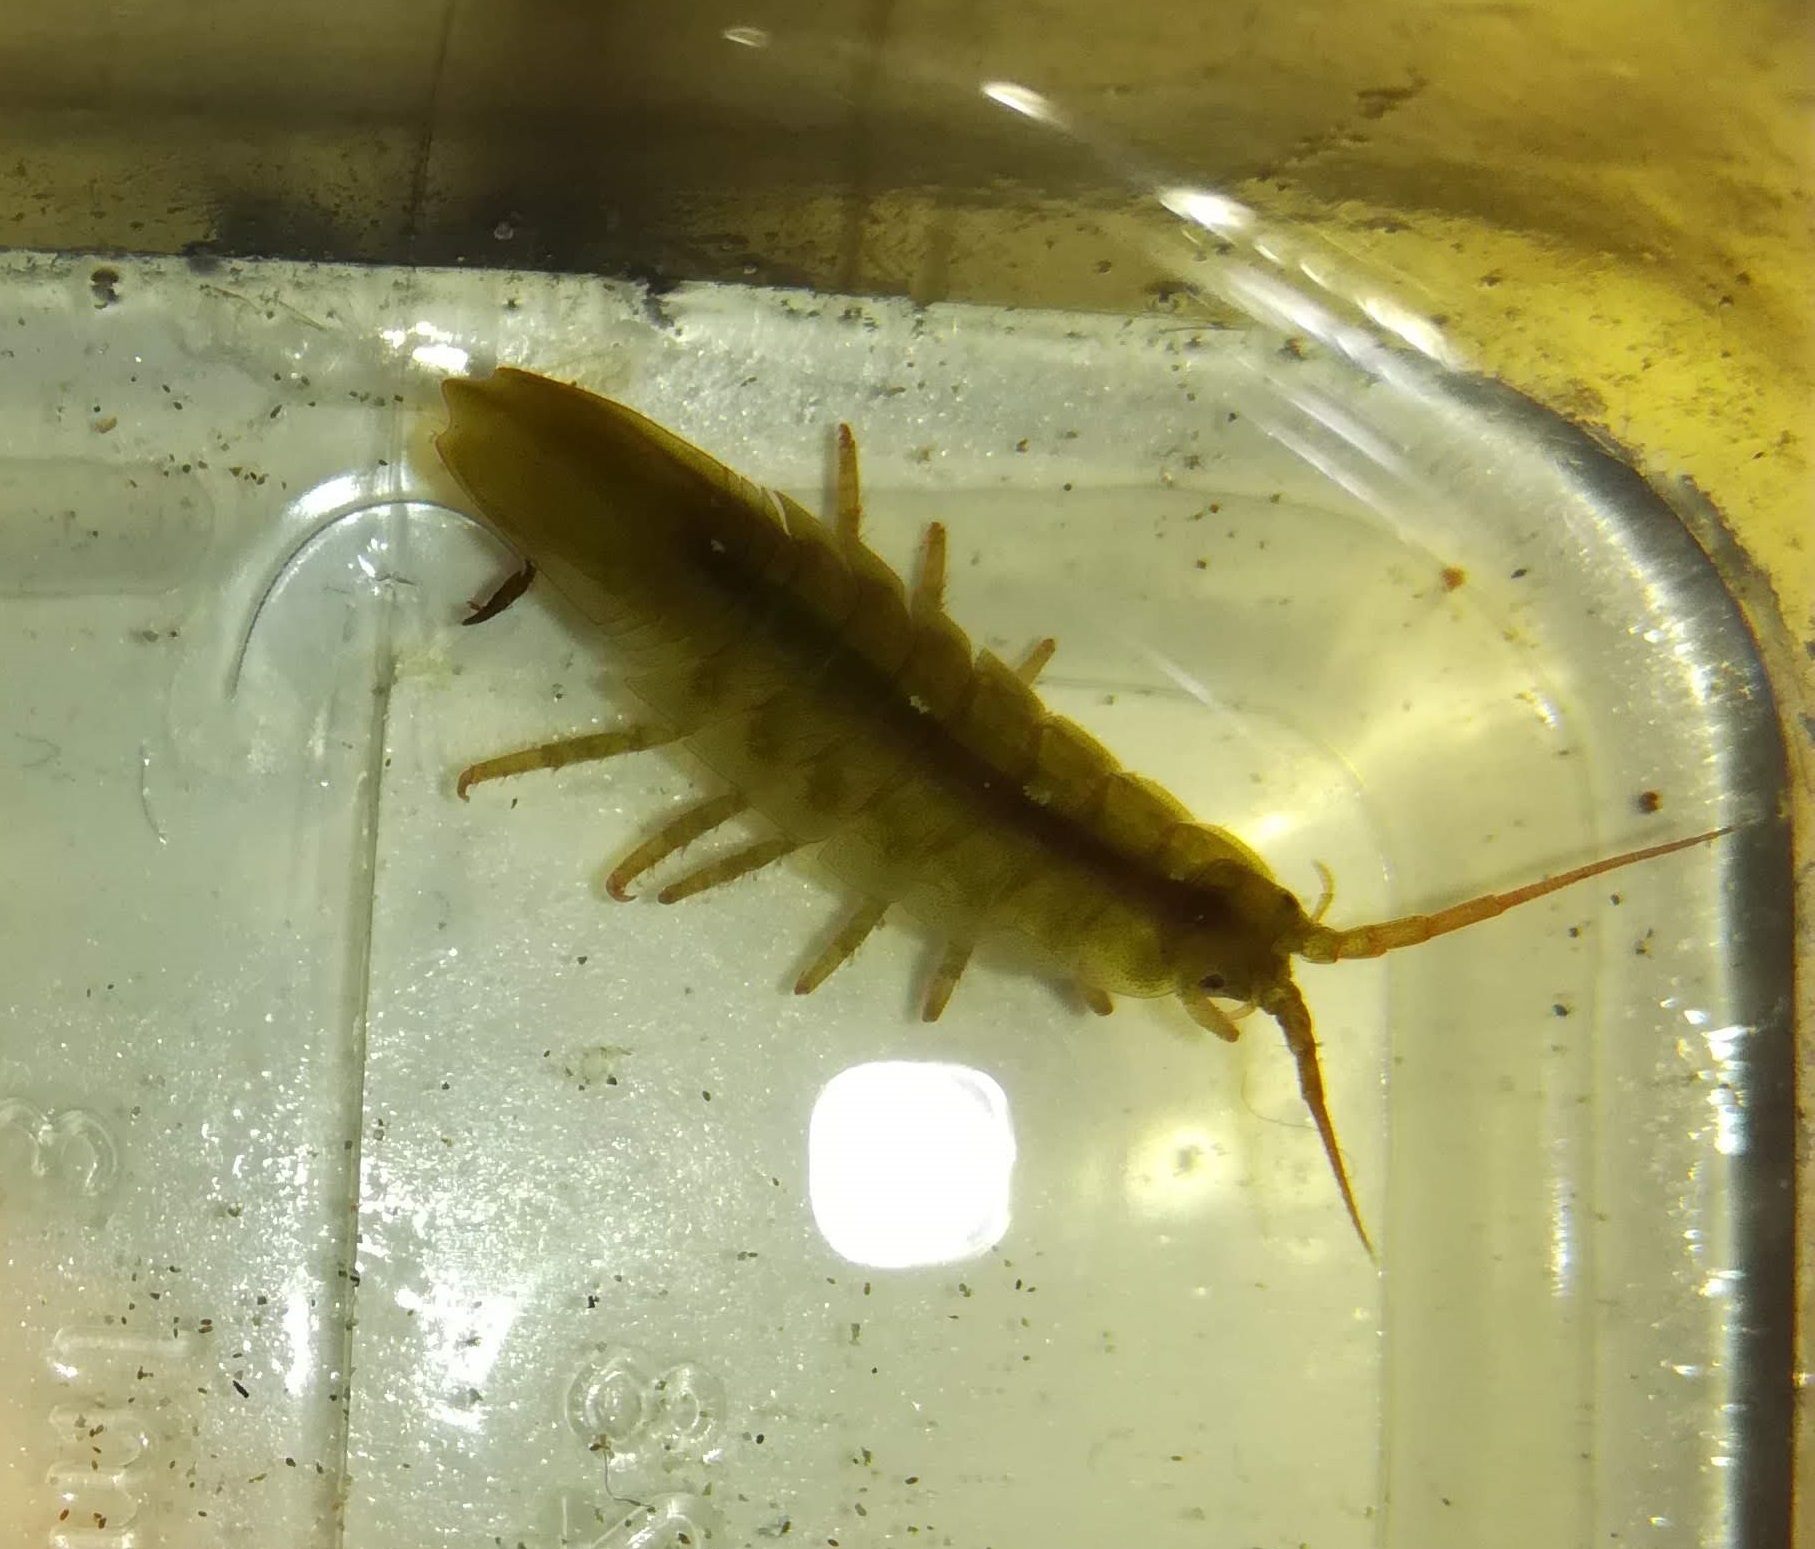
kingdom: Animalia
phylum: Arthropoda
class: Malacostraca
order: Isopoda
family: Idoteidae
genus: Idotea
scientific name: Idotea balthica
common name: Baltic isopod
